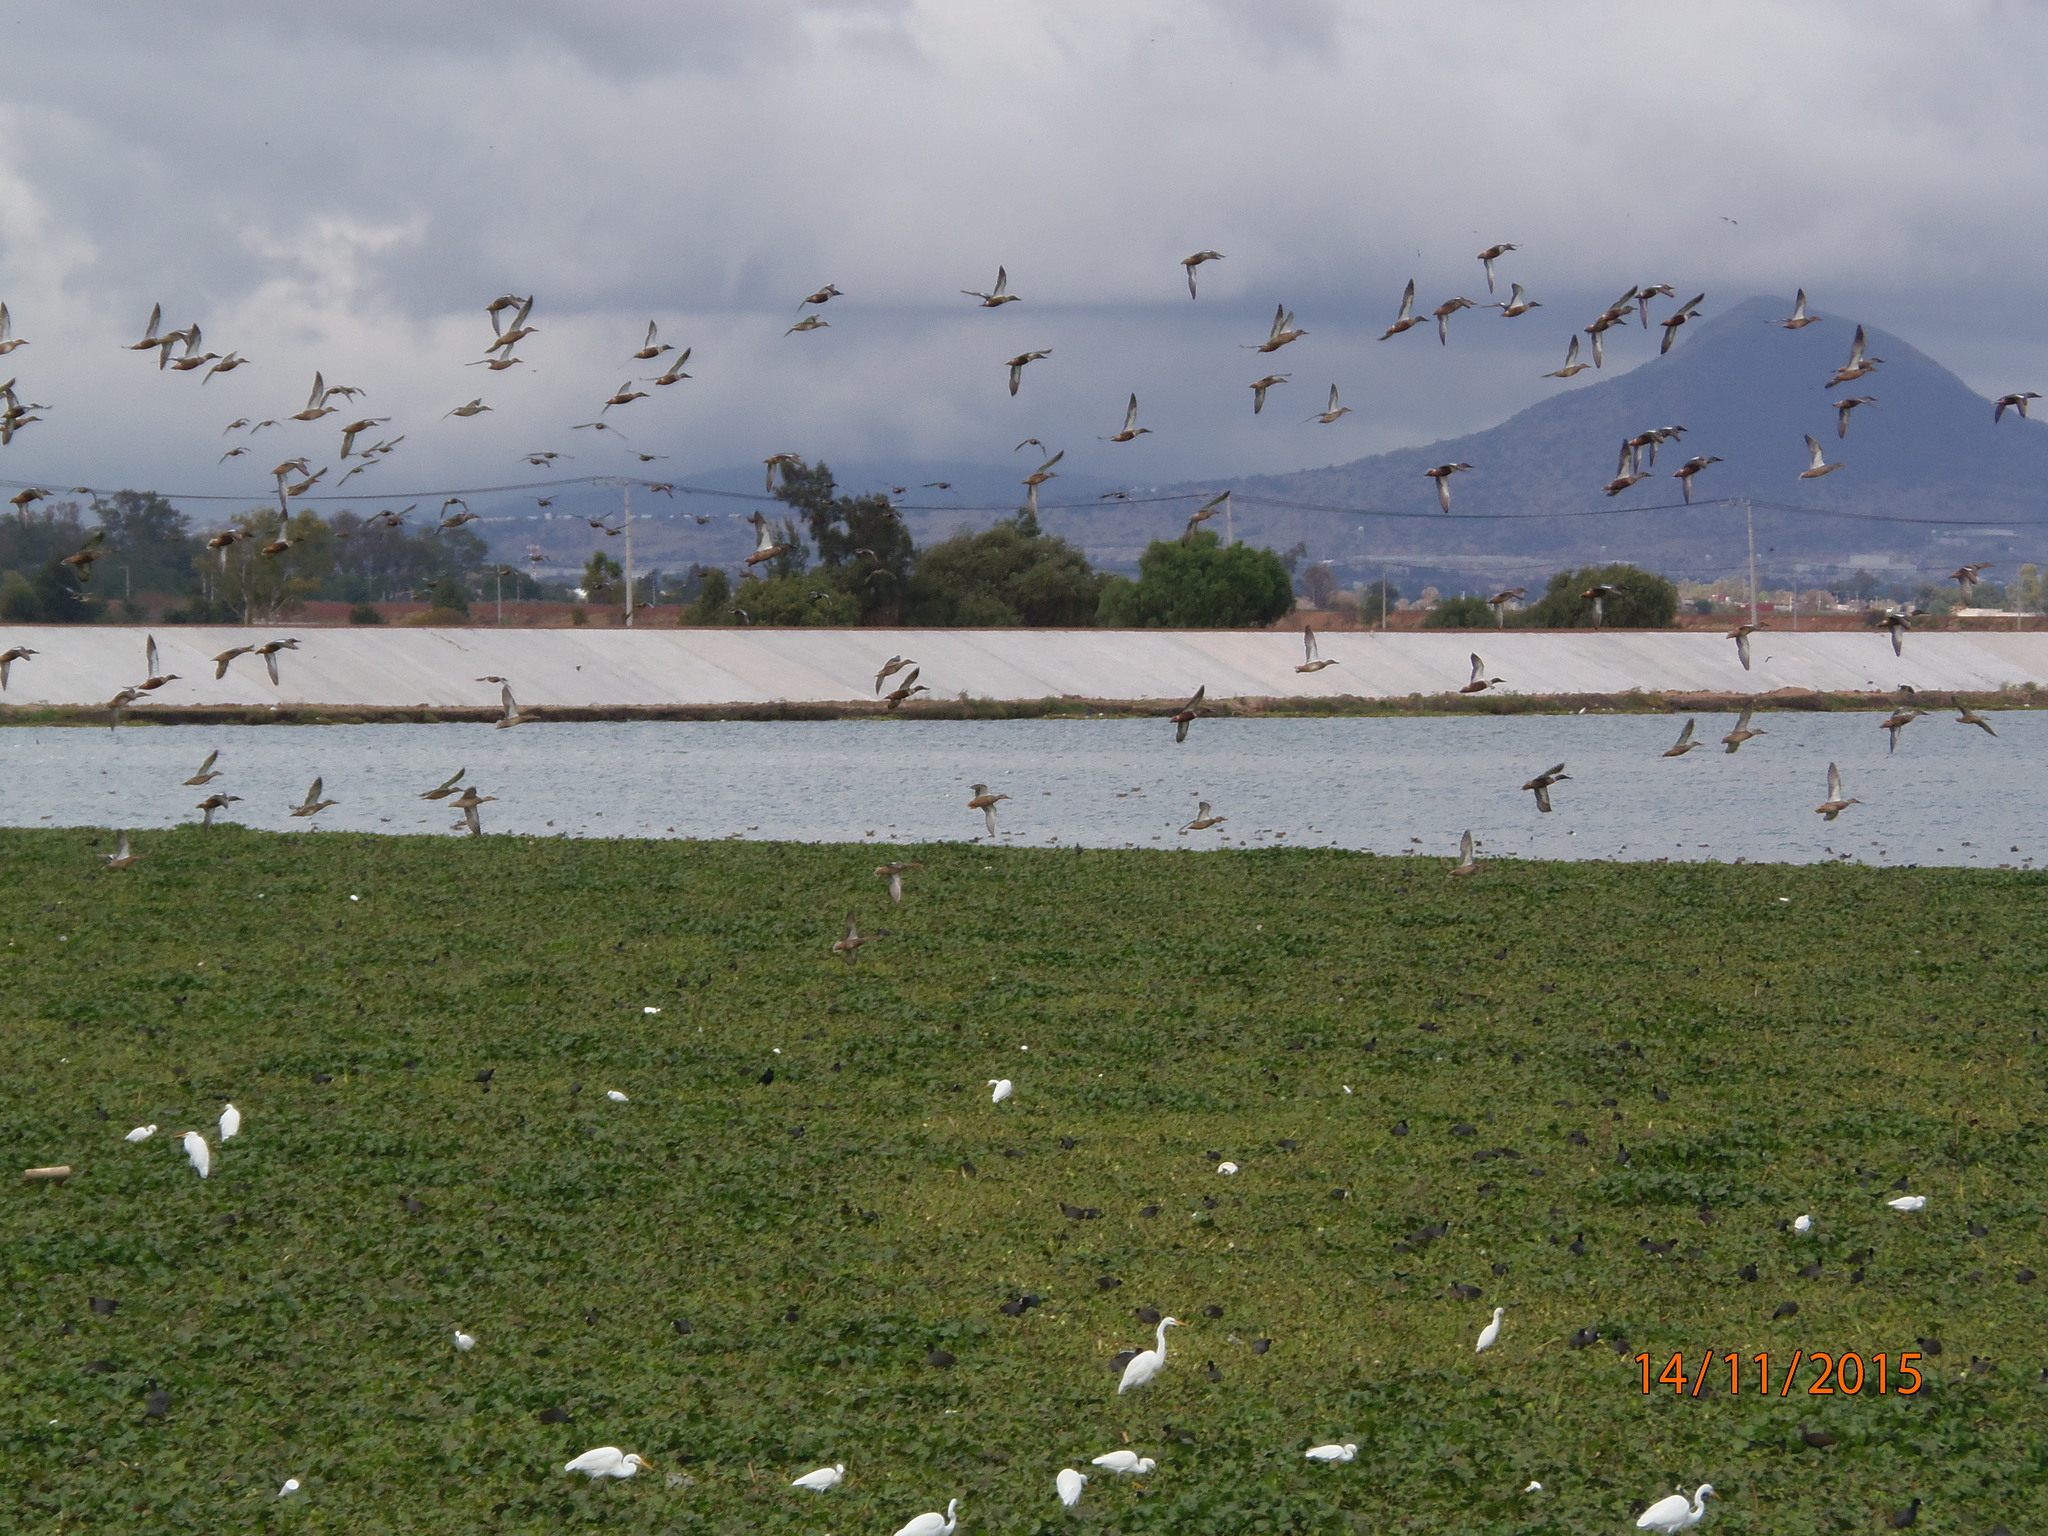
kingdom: Animalia
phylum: Chordata
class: Aves
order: Anseriformes
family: Anatidae
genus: Spatula
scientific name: Spatula clypeata
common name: Northern shoveler
